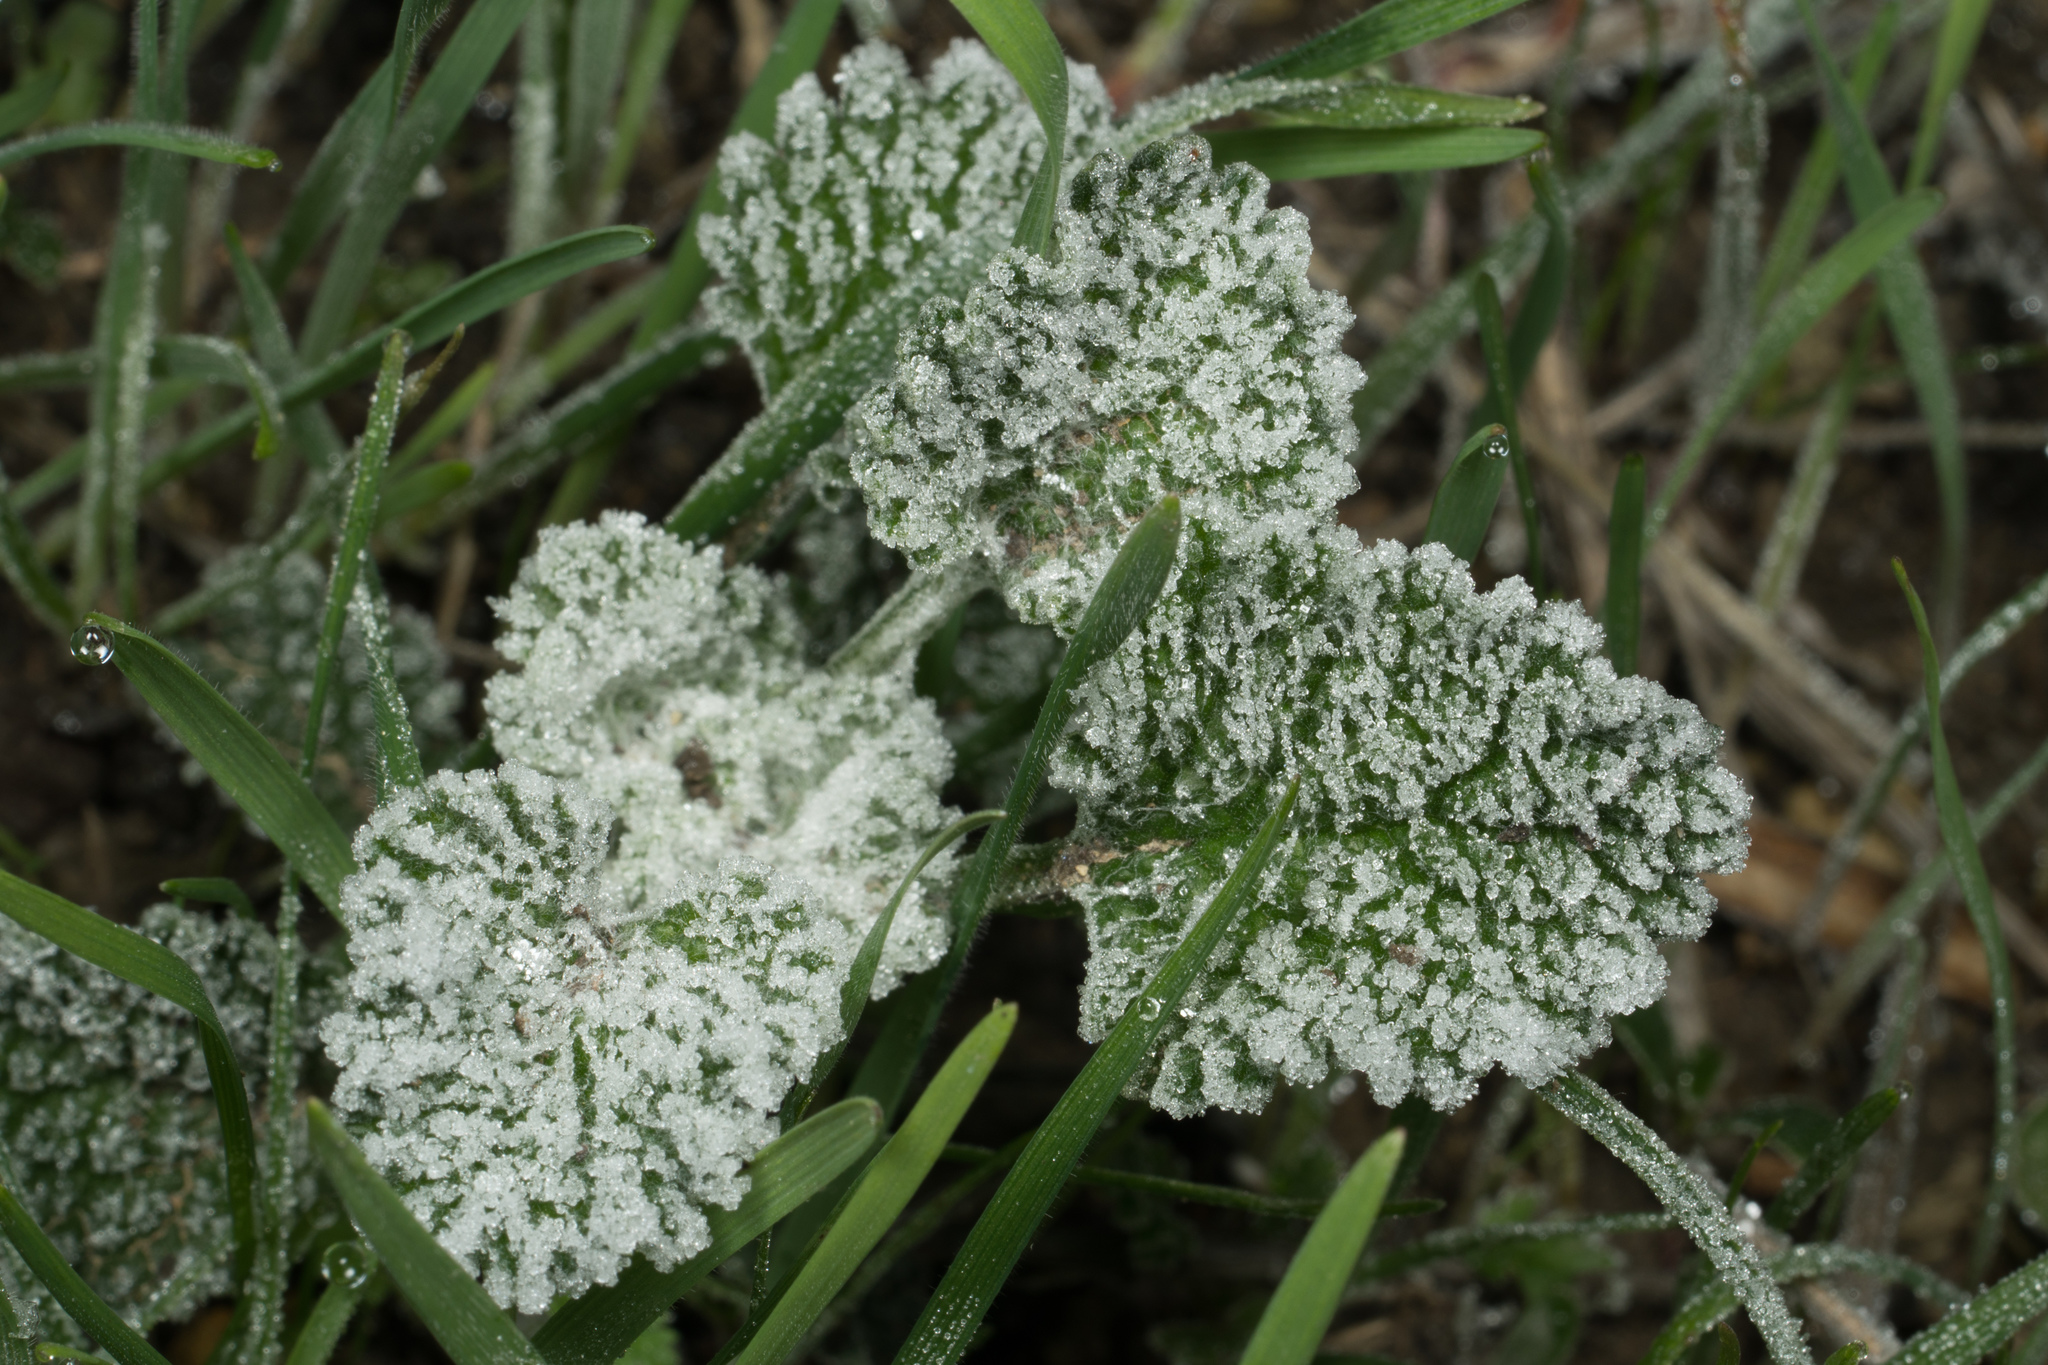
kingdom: Plantae
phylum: Tracheophyta
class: Magnoliopsida
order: Lamiales
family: Lamiaceae
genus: Marrubium
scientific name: Marrubium vulgare
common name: Horehound
